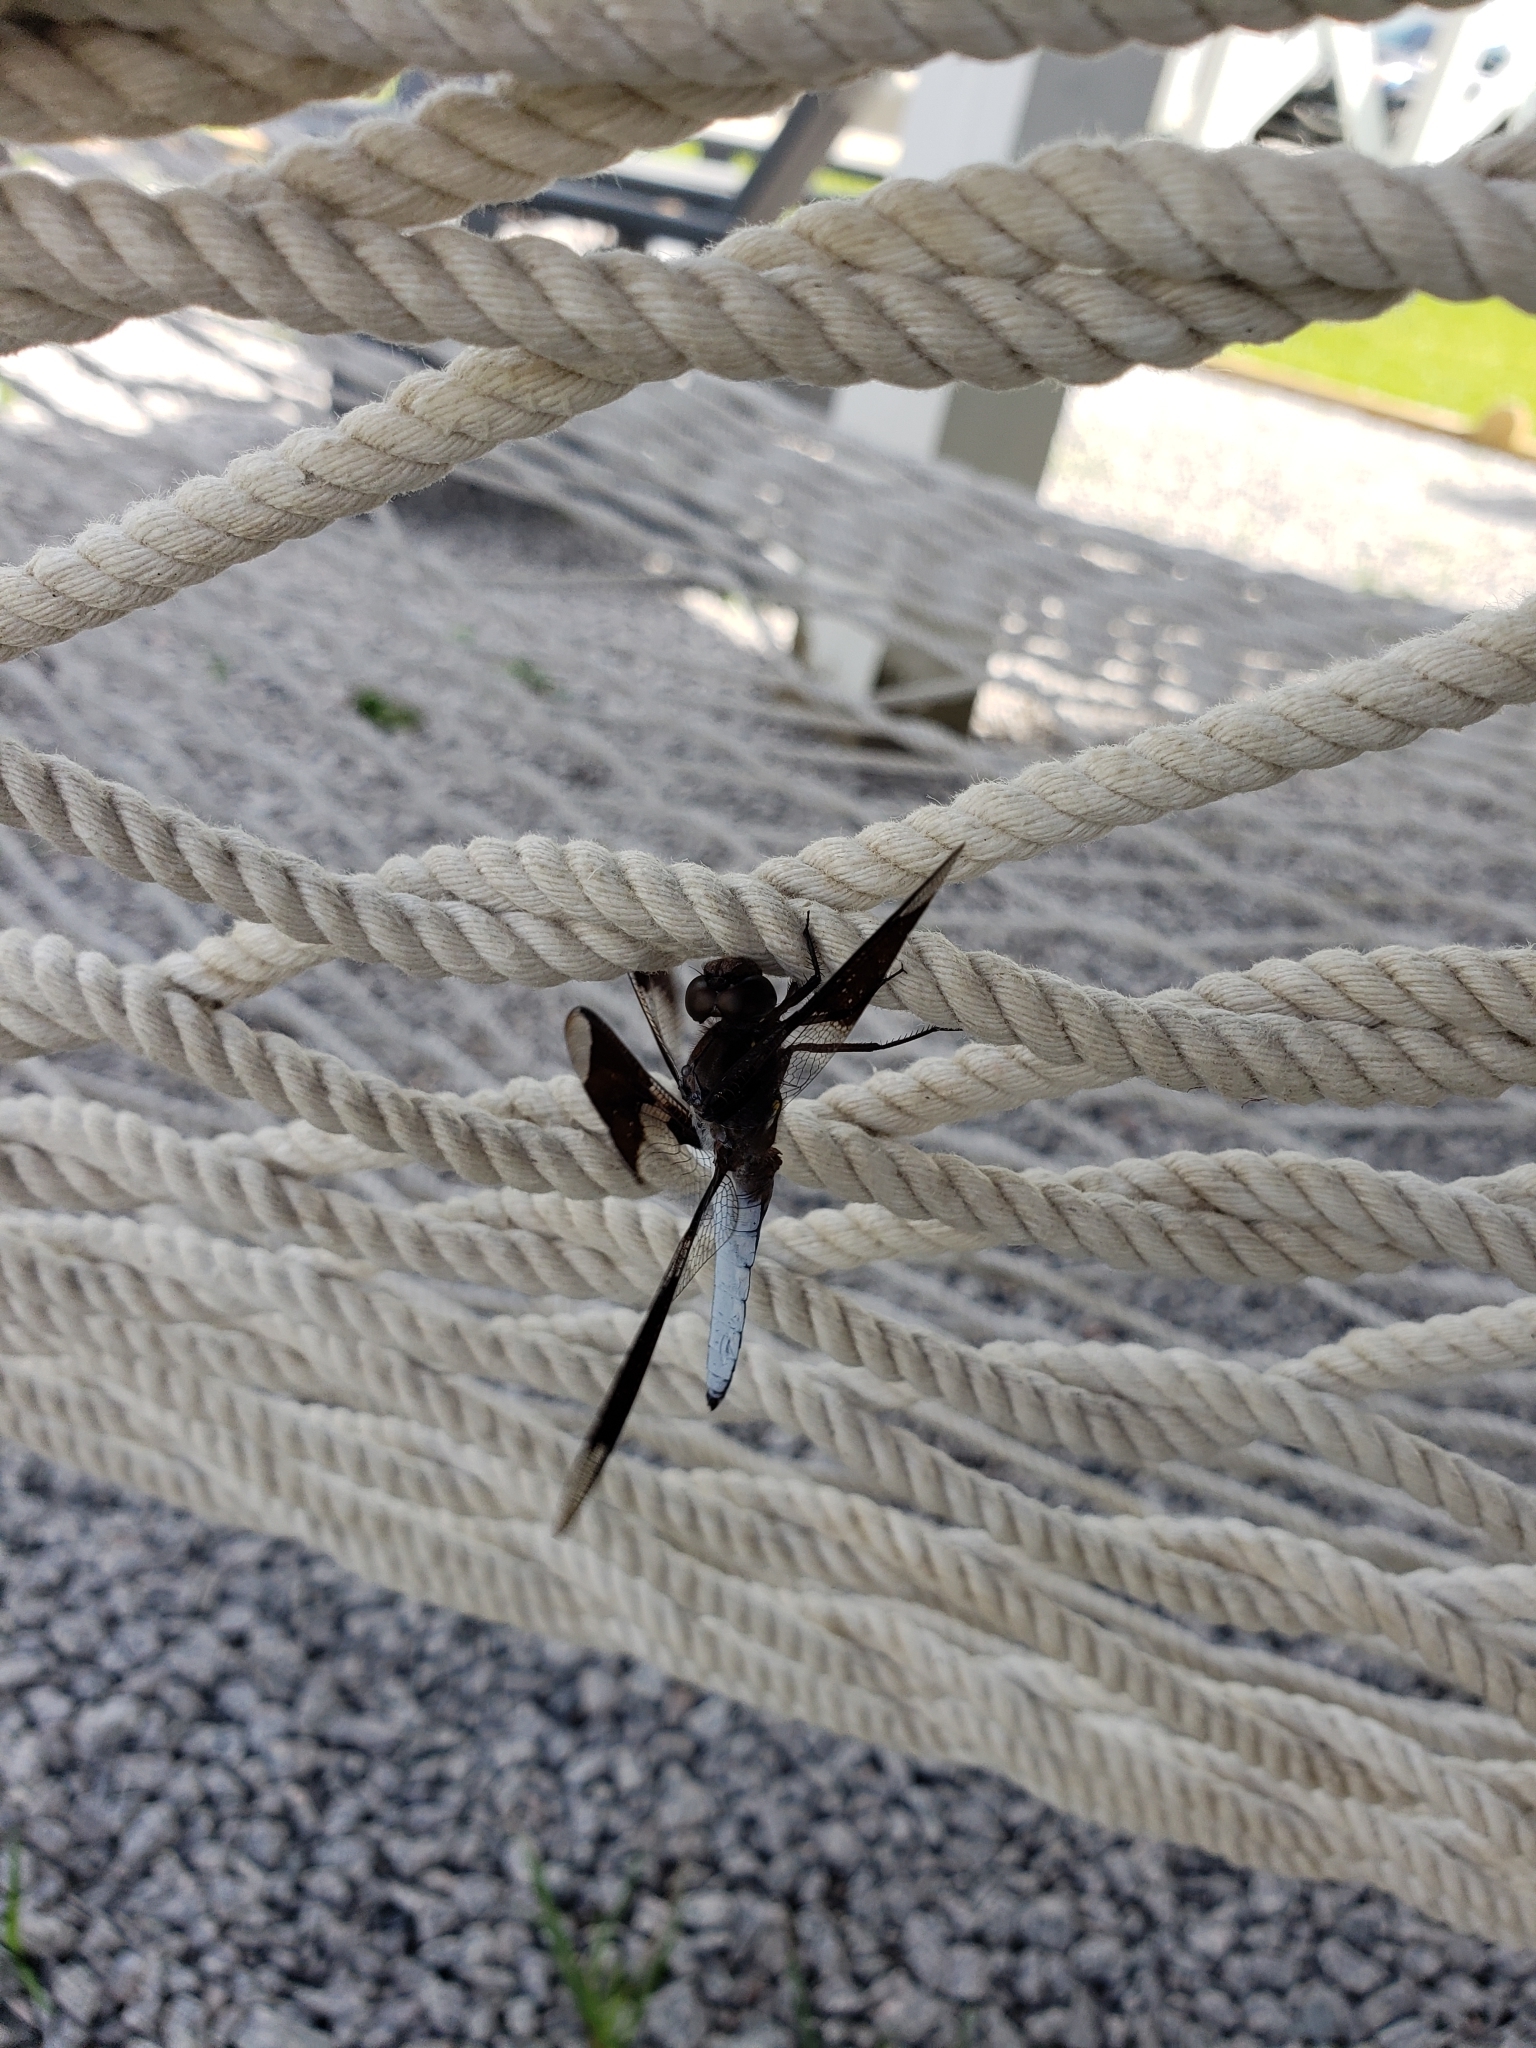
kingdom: Animalia
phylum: Arthropoda
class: Insecta
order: Odonata
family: Libellulidae
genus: Plathemis
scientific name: Plathemis lydia
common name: Common whitetail
